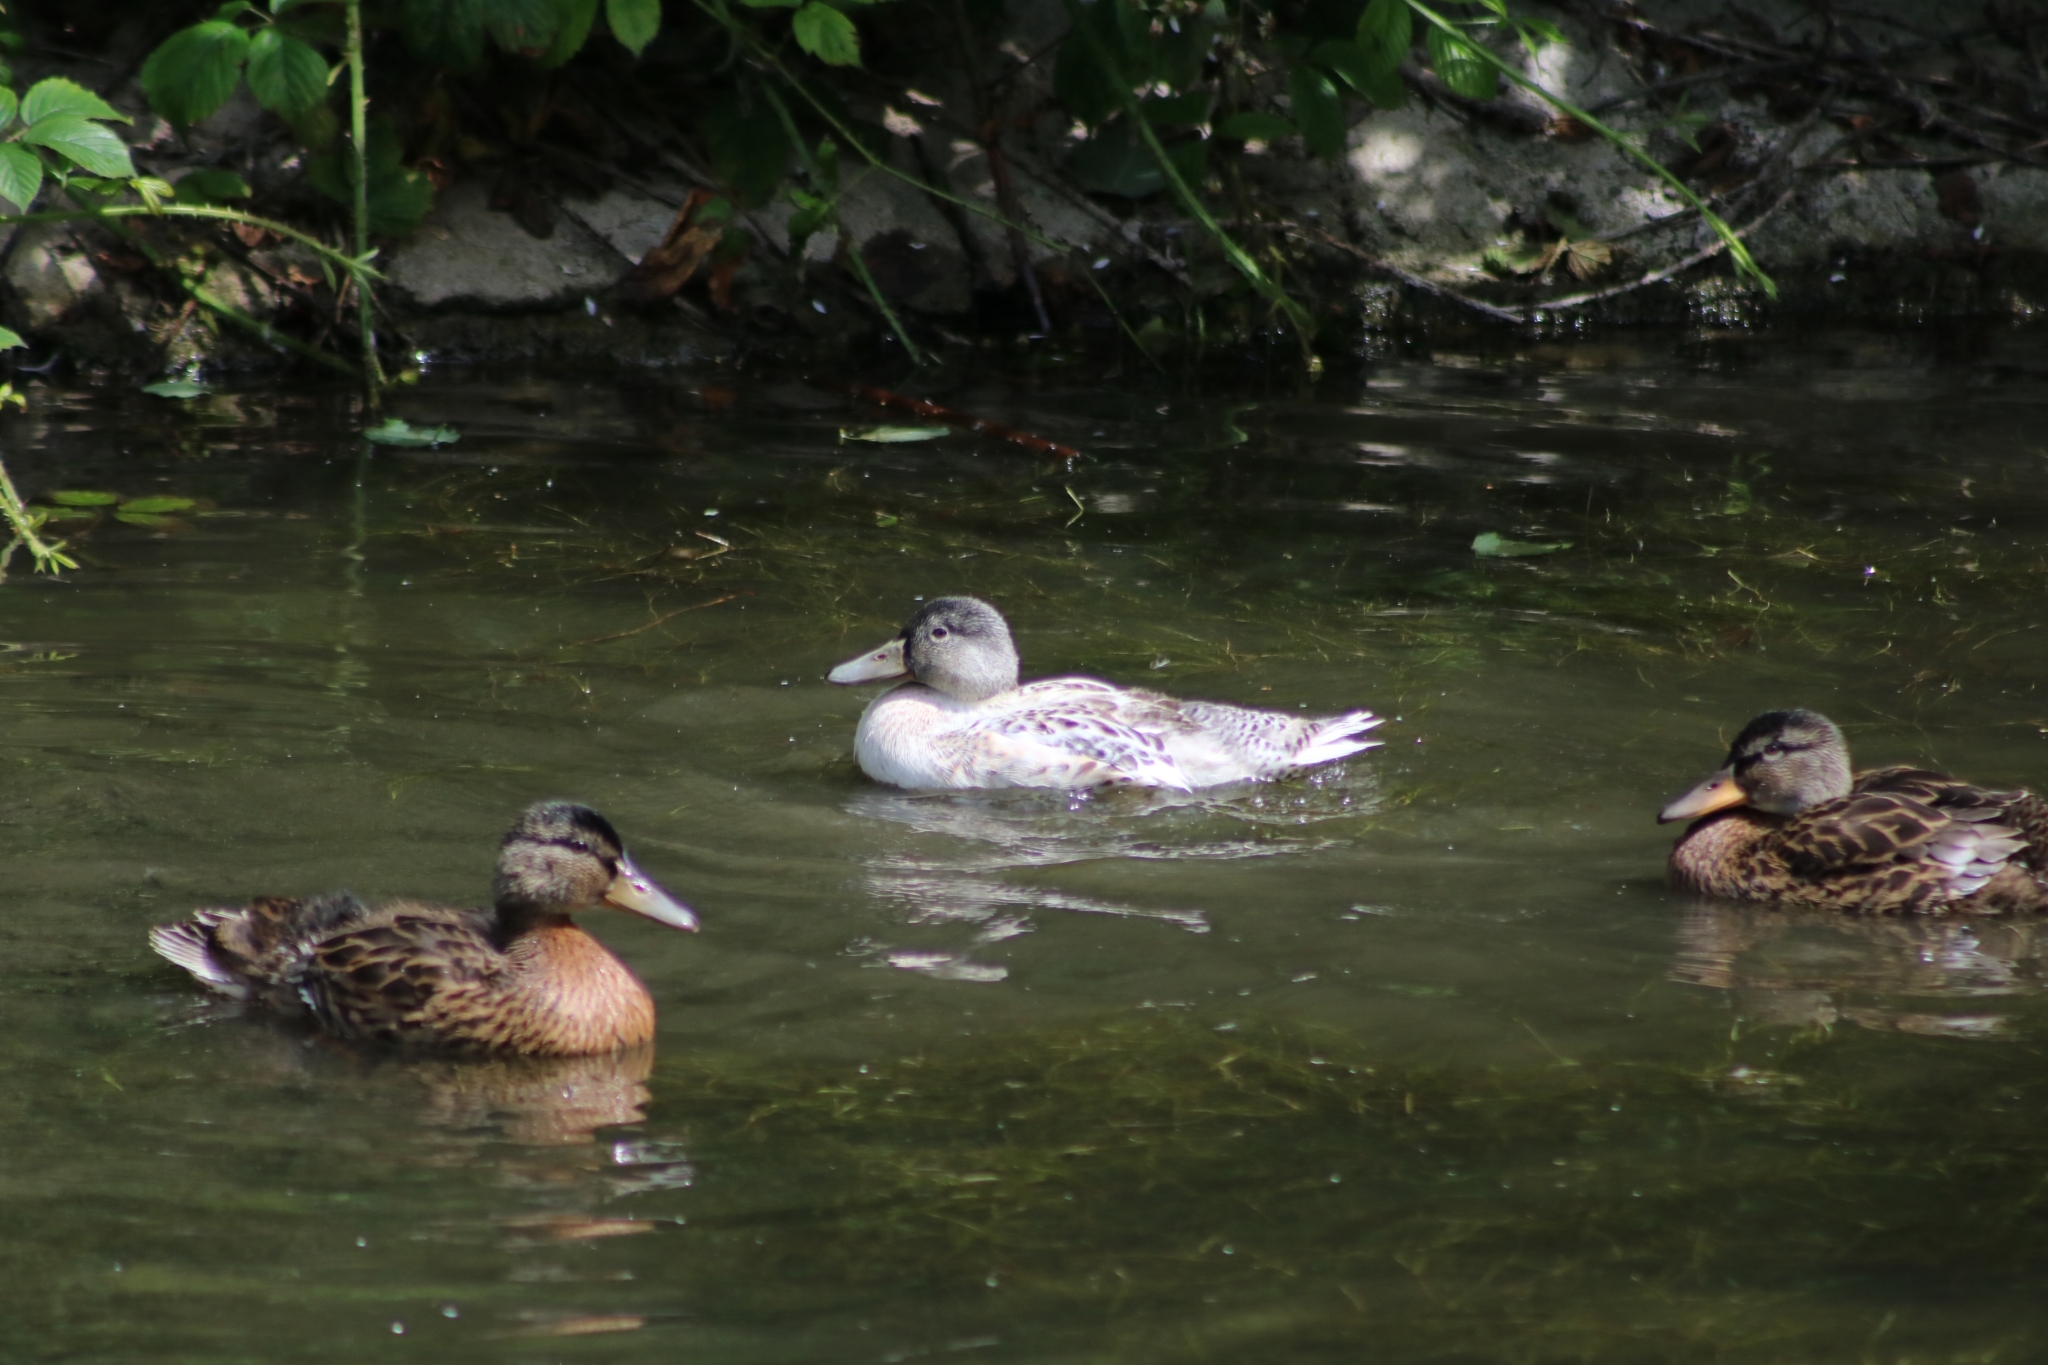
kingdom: Animalia
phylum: Chordata
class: Aves
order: Anseriformes
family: Anatidae
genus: Anas
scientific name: Anas platyrhynchos
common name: Mallard
